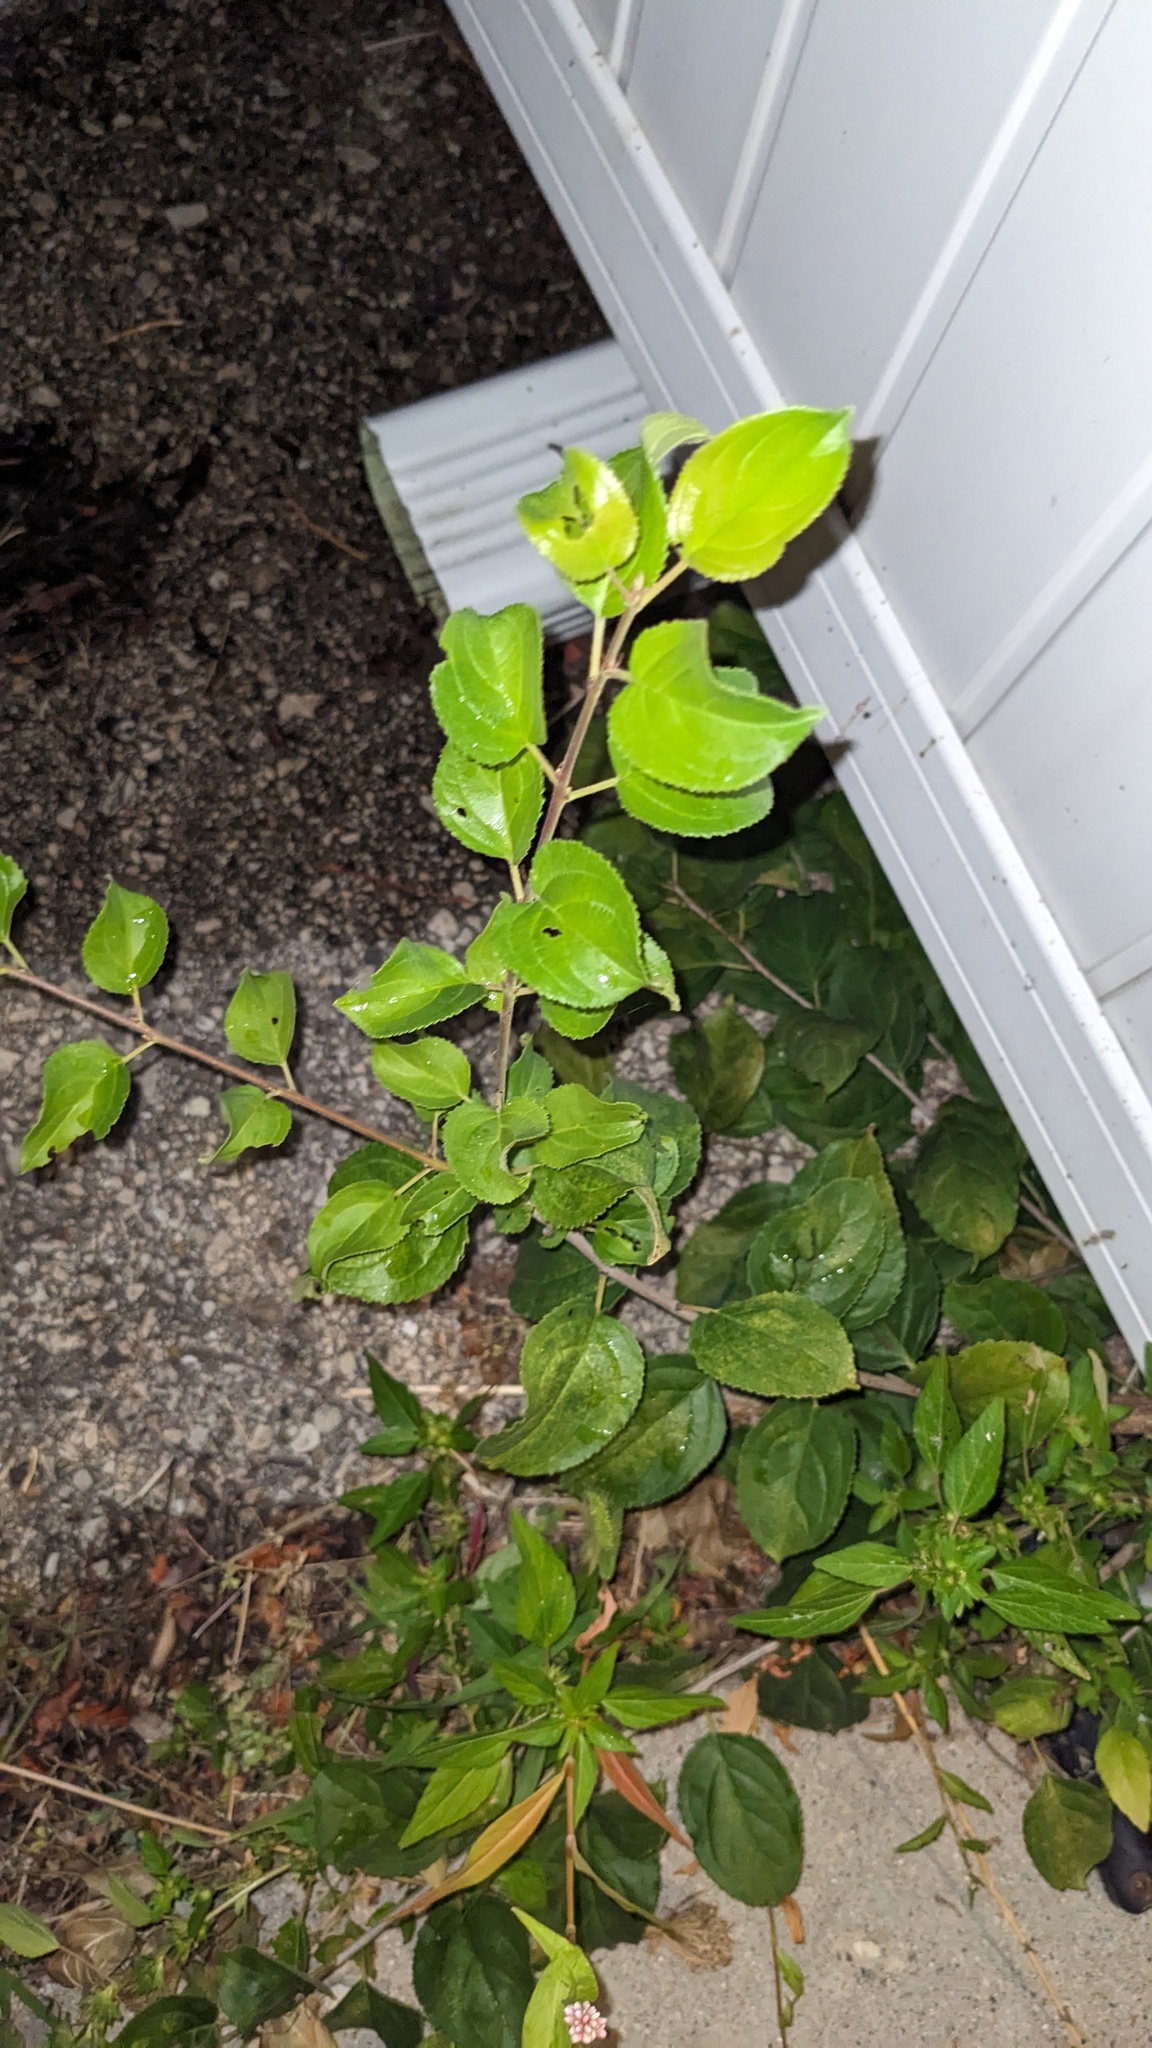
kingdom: Plantae
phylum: Tracheophyta
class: Magnoliopsida
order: Rosales
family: Rhamnaceae
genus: Rhamnus
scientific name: Rhamnus cathartica
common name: Common buckthorn
